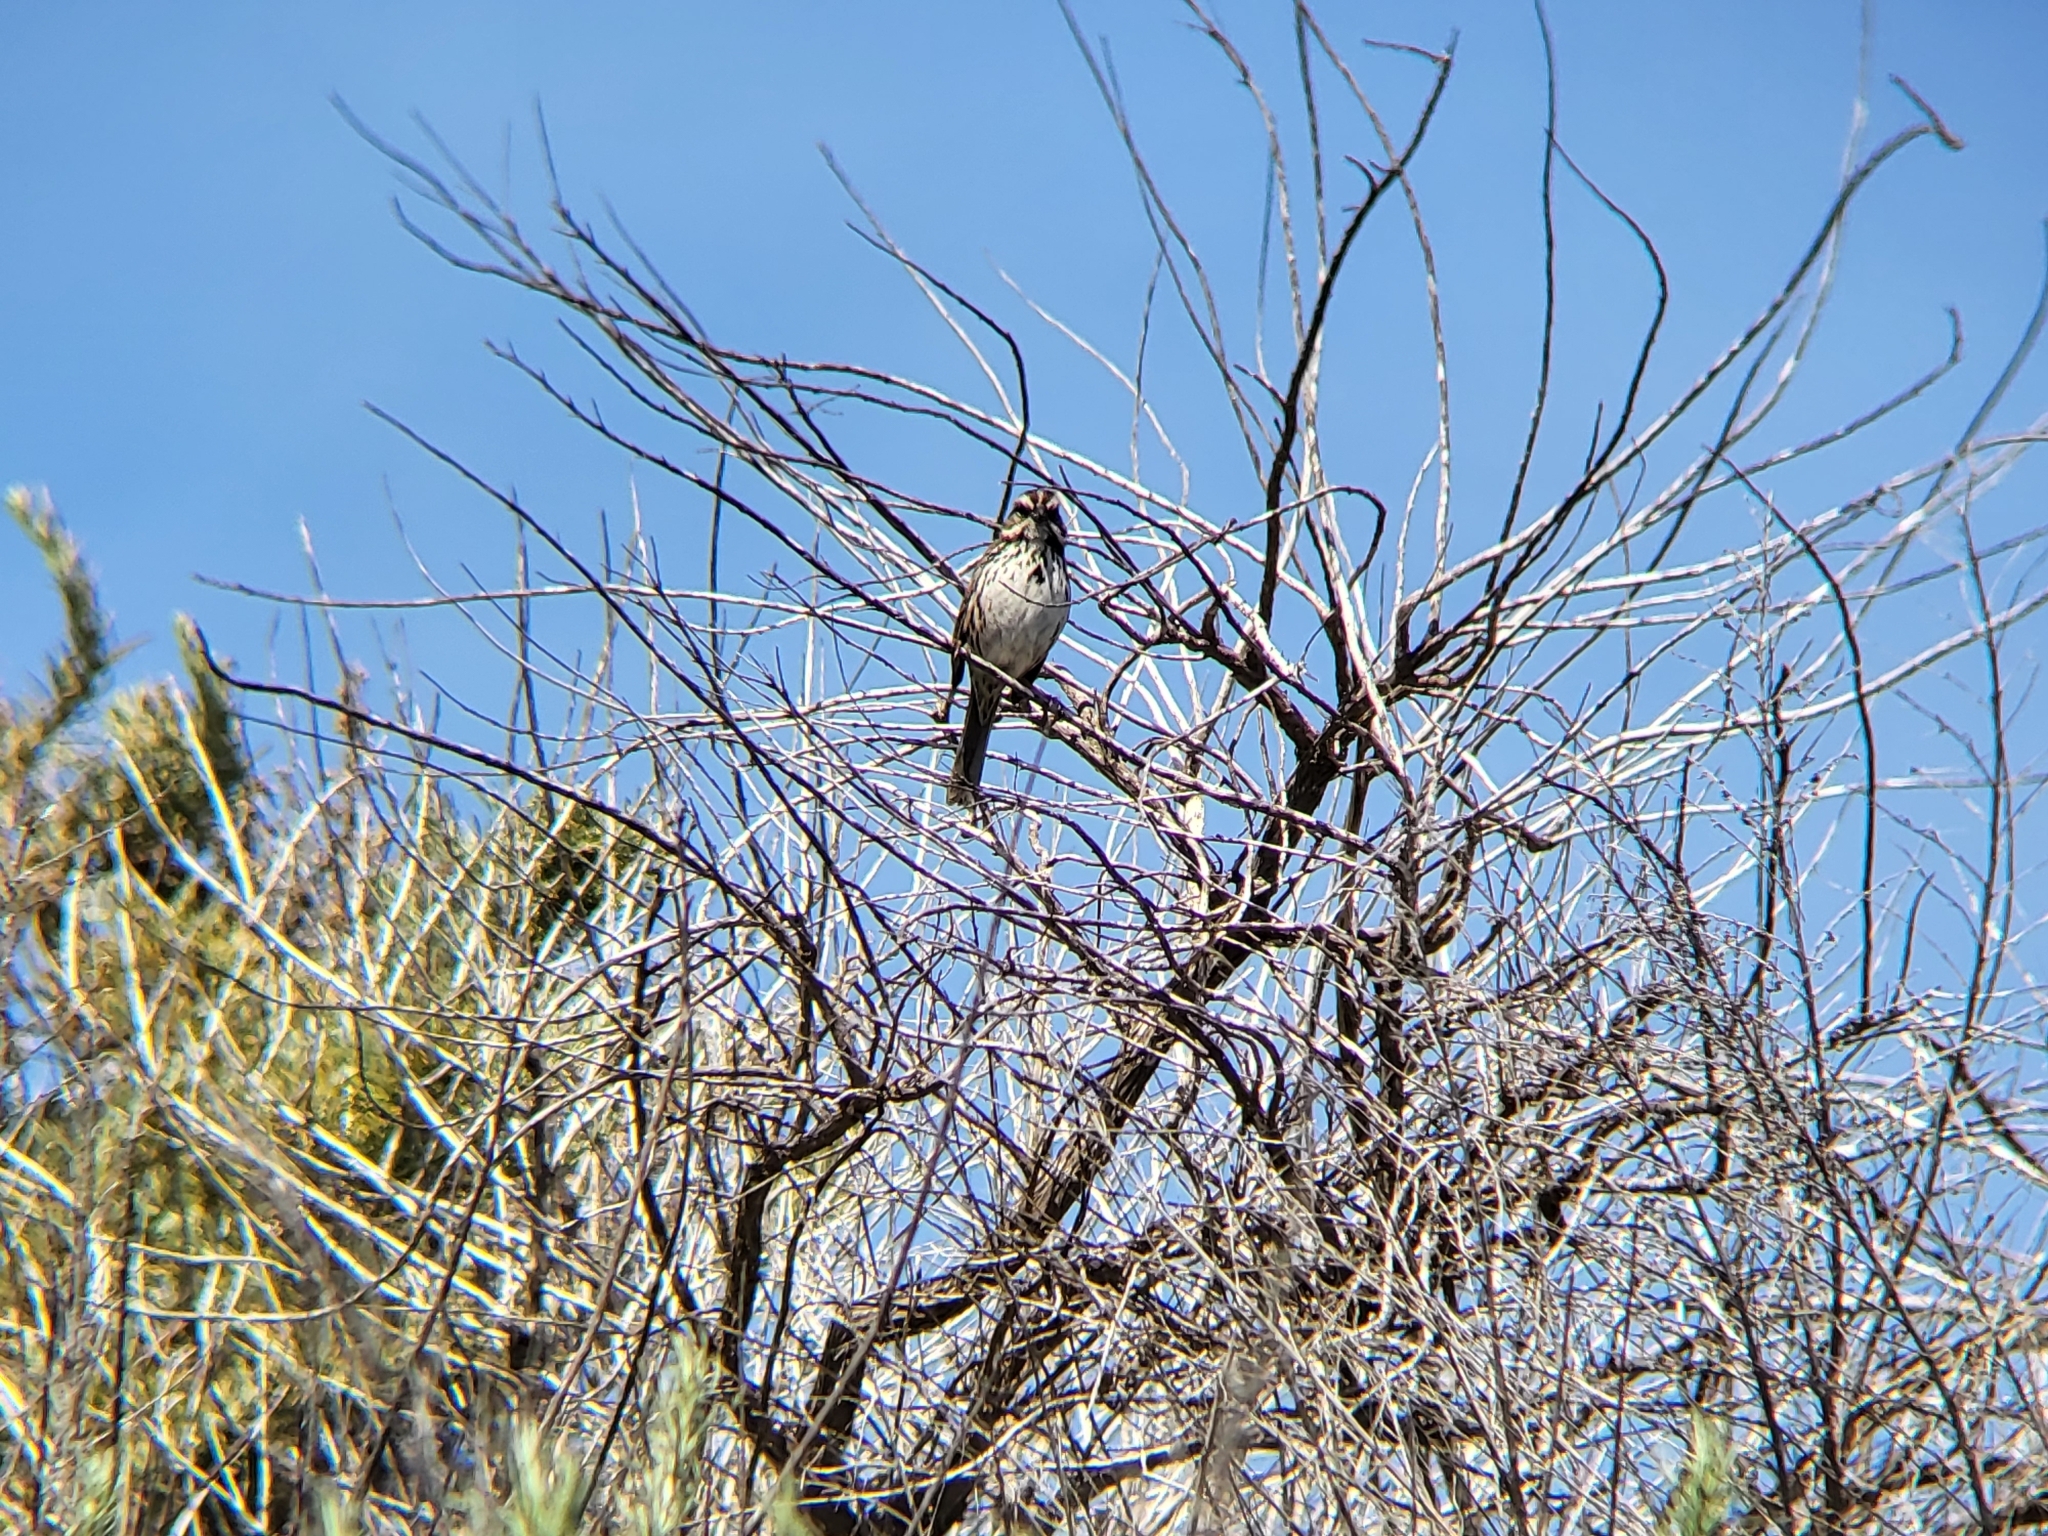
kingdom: Animalia
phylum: Chordata
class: Aves
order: Passeriformes
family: Passerellidae
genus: Melospiza
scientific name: Melospiza melodia
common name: Song sparrow
